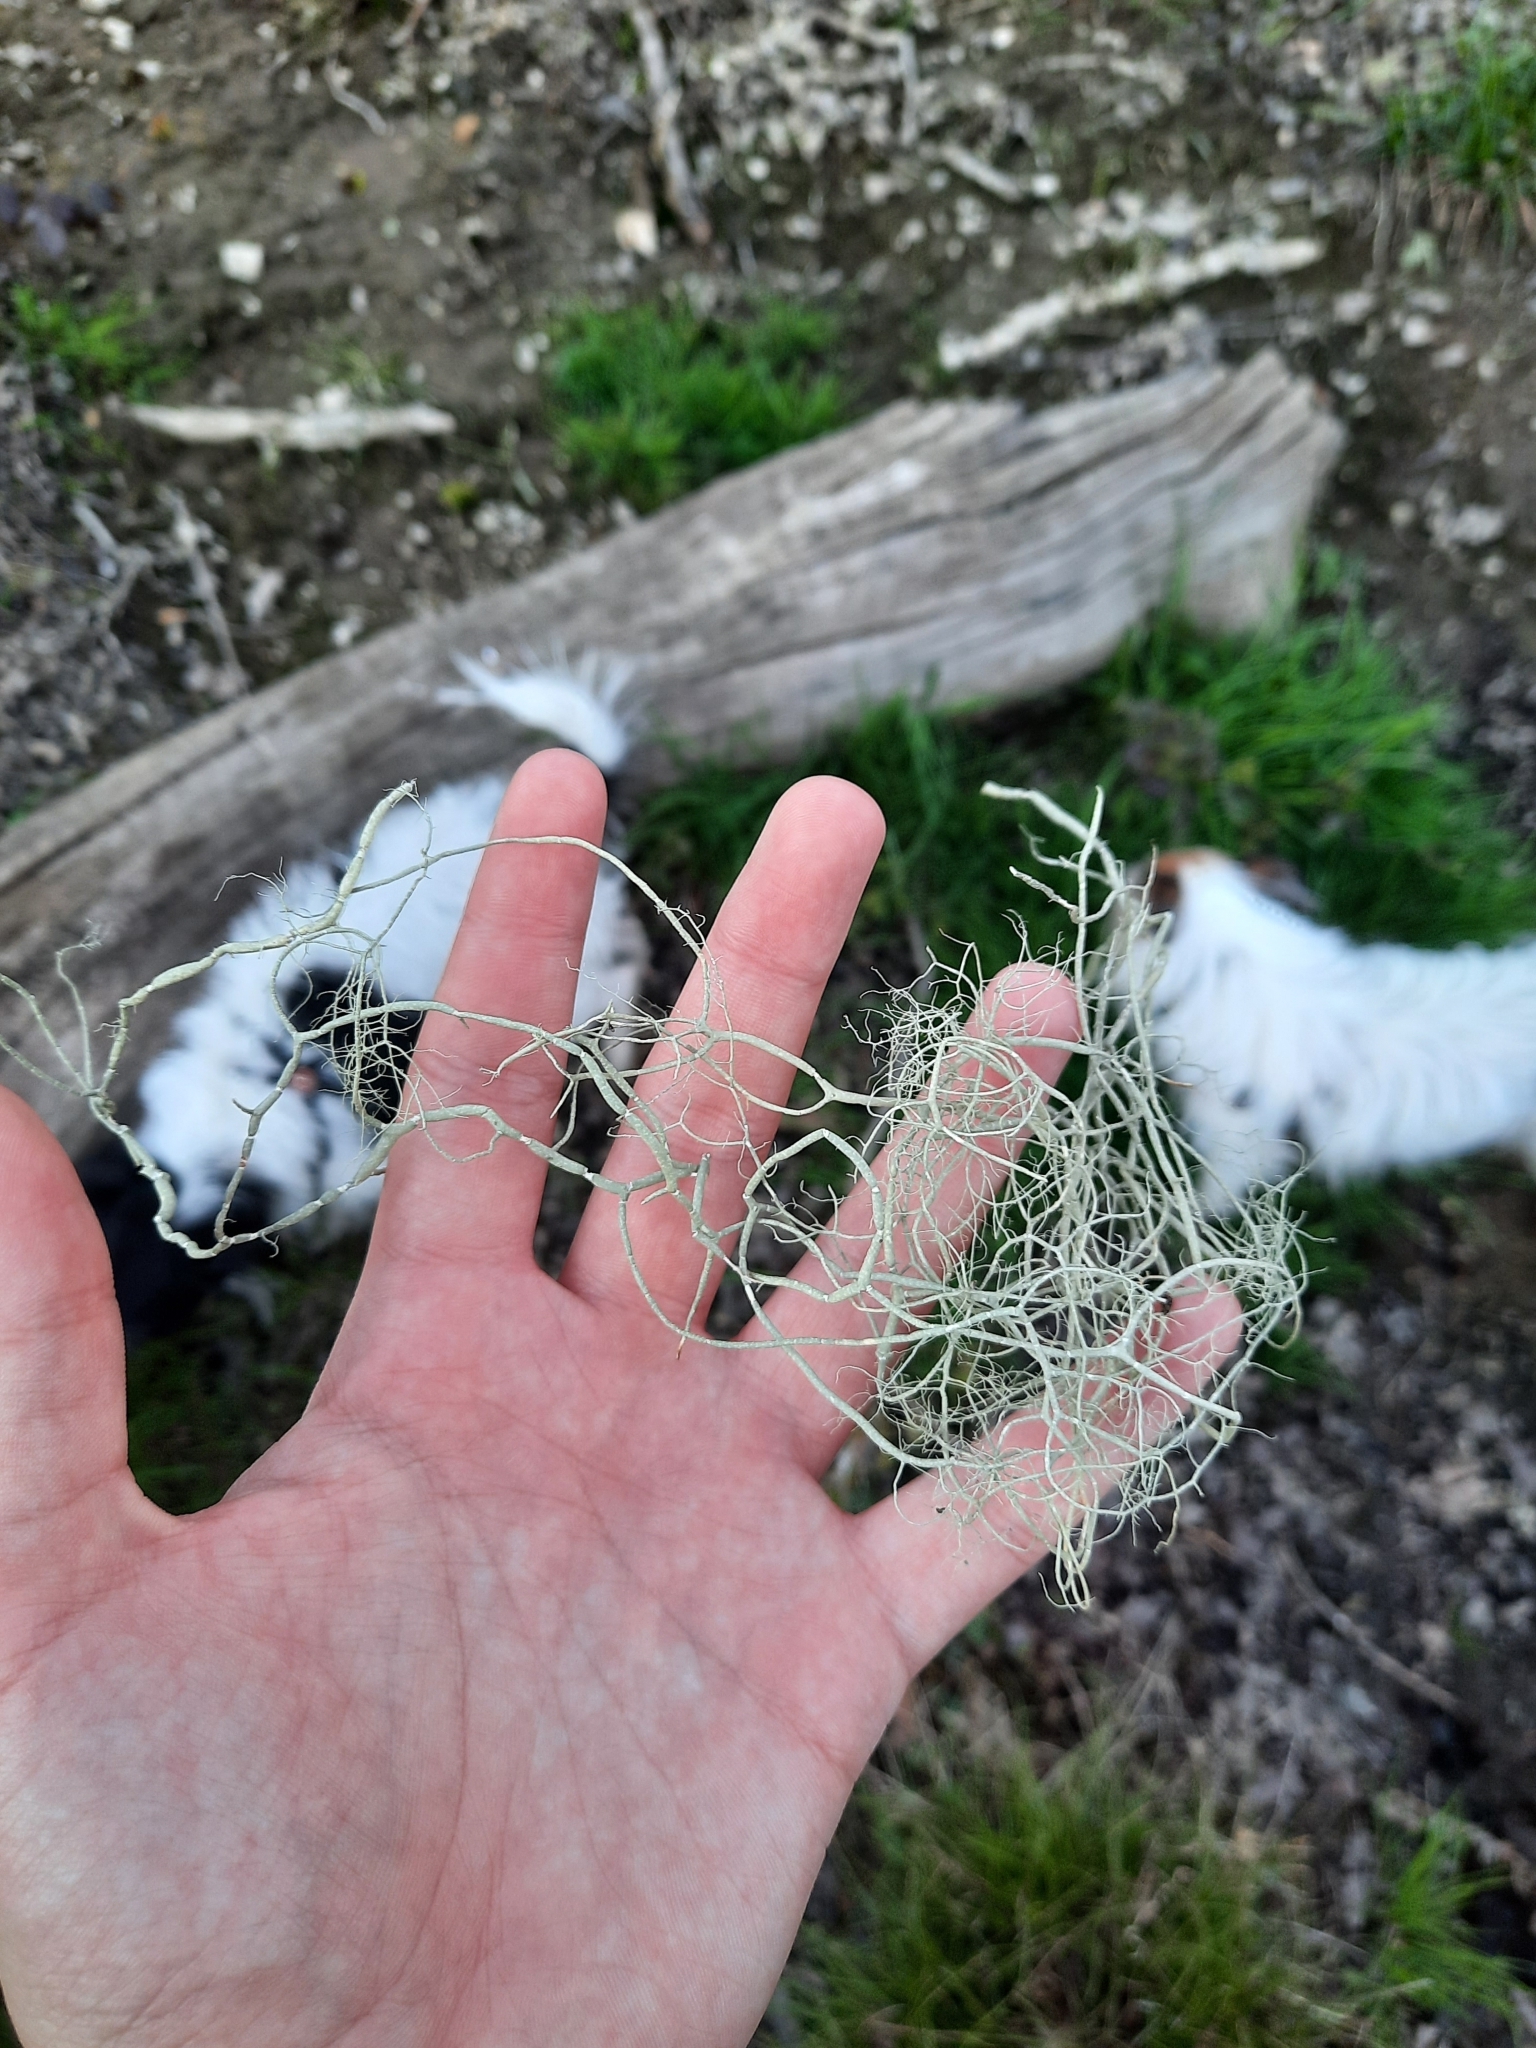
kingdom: Fungi
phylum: Ascomycota
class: Lecanoromycetes
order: Lecanorales
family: Parmeliaceae
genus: Usnea
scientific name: Usnea articulata
